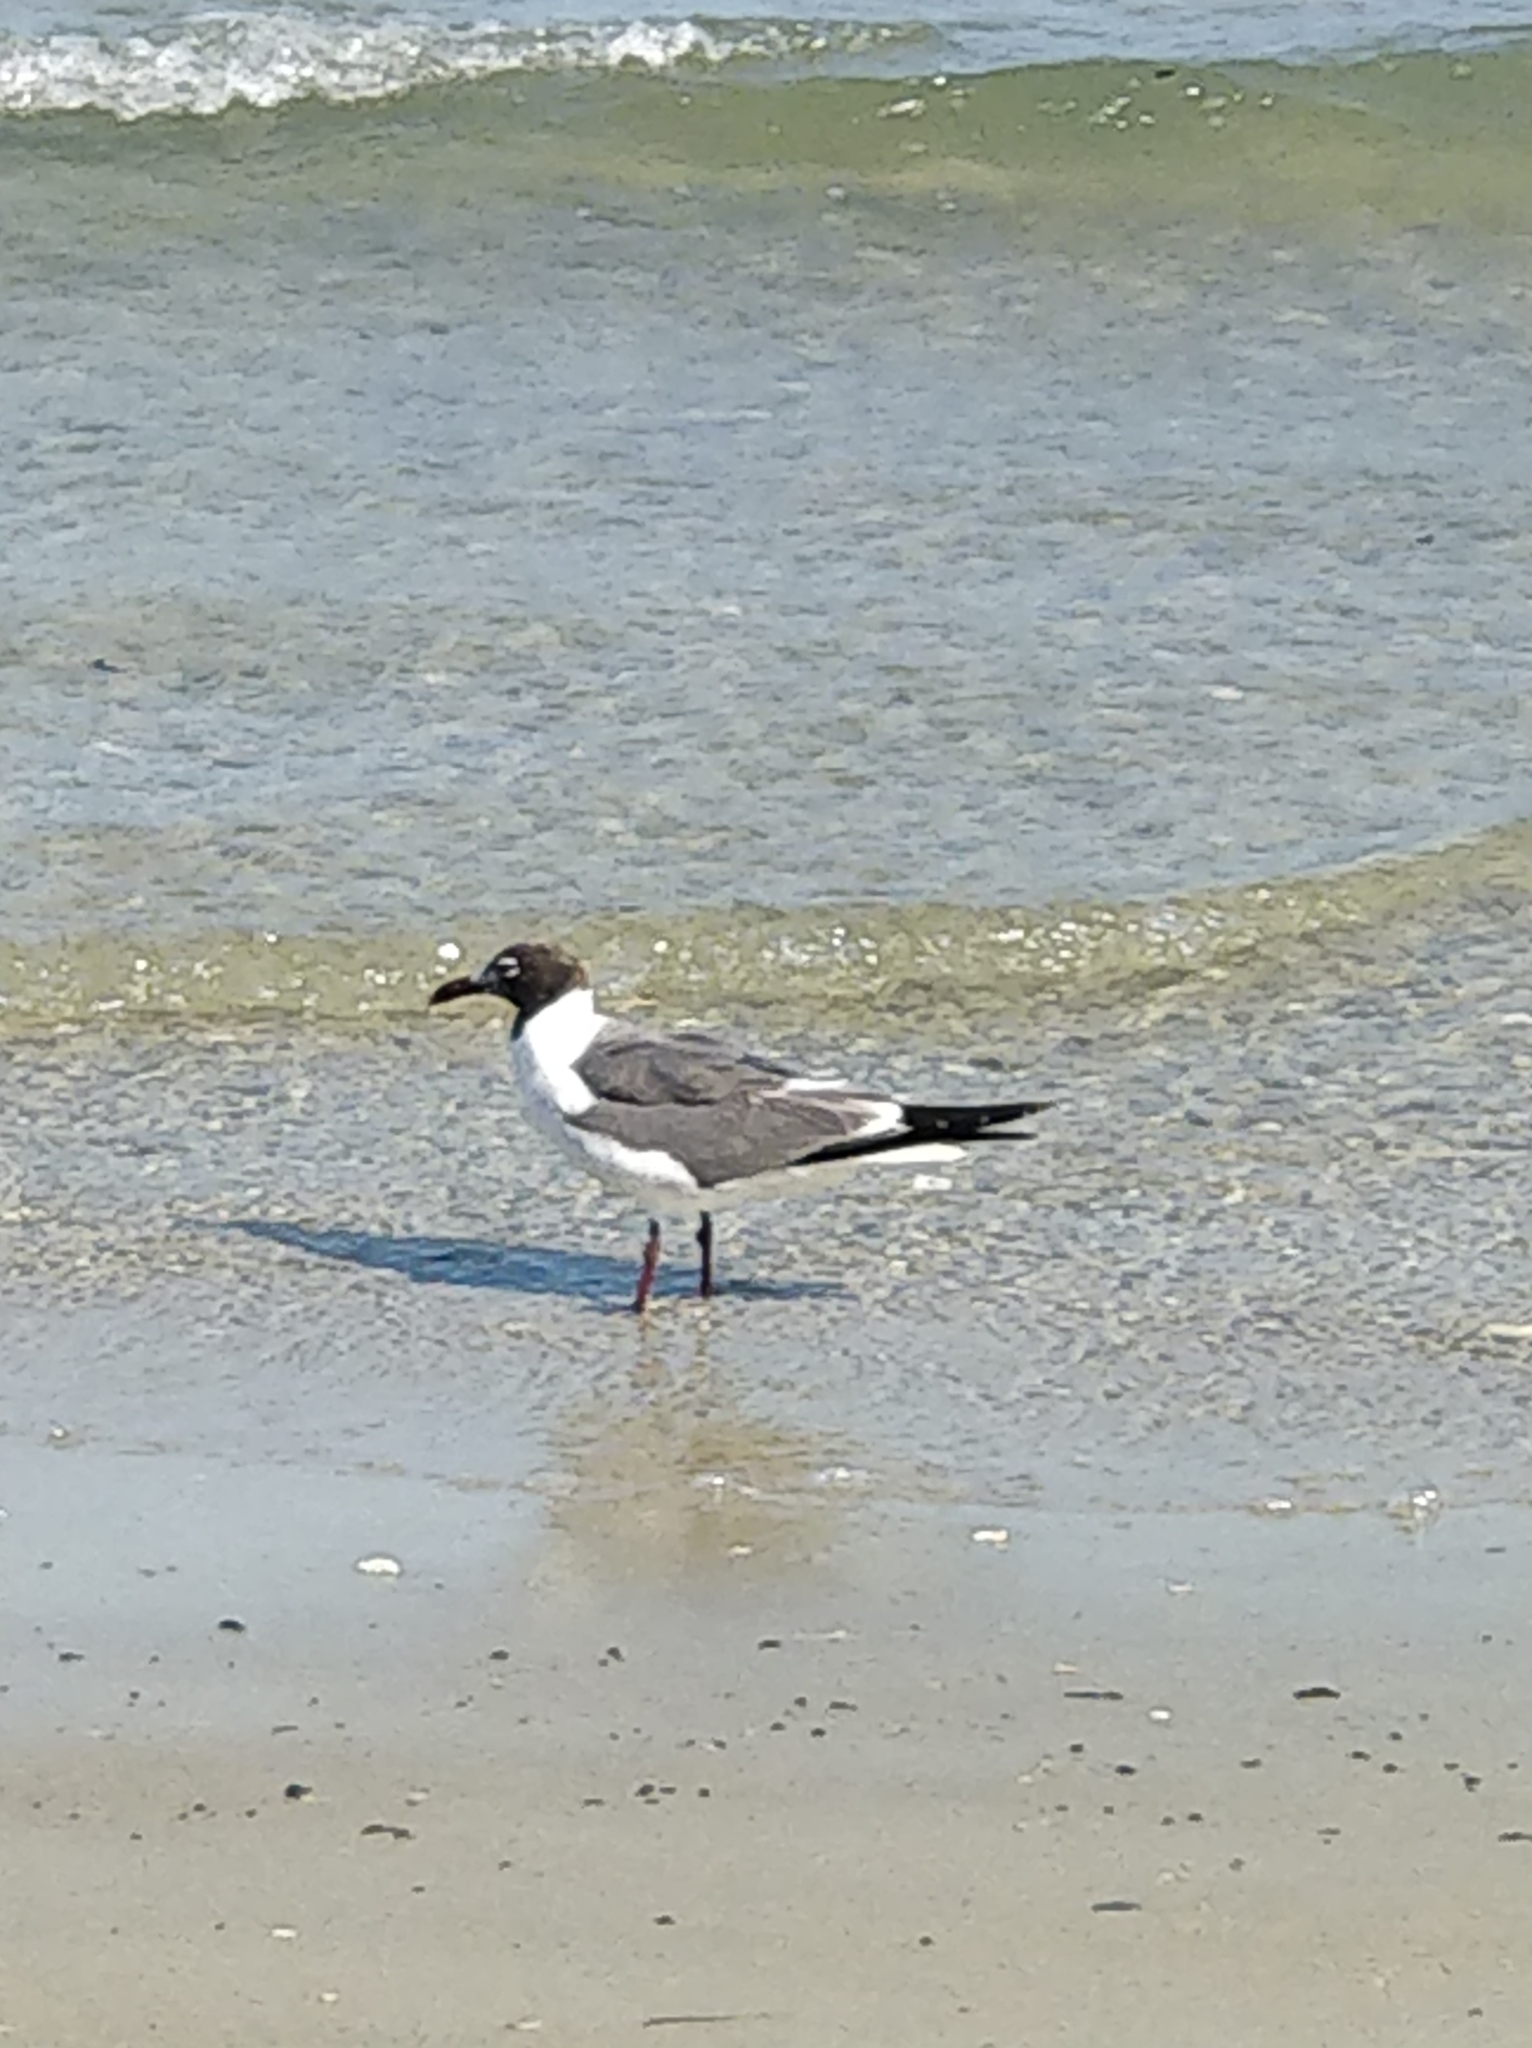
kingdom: Animalia
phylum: Chordata
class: Aves
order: Charadriiformes
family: Laridae
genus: Leucophaeus
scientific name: Leucophaeus atricilla
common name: Laughing gull
